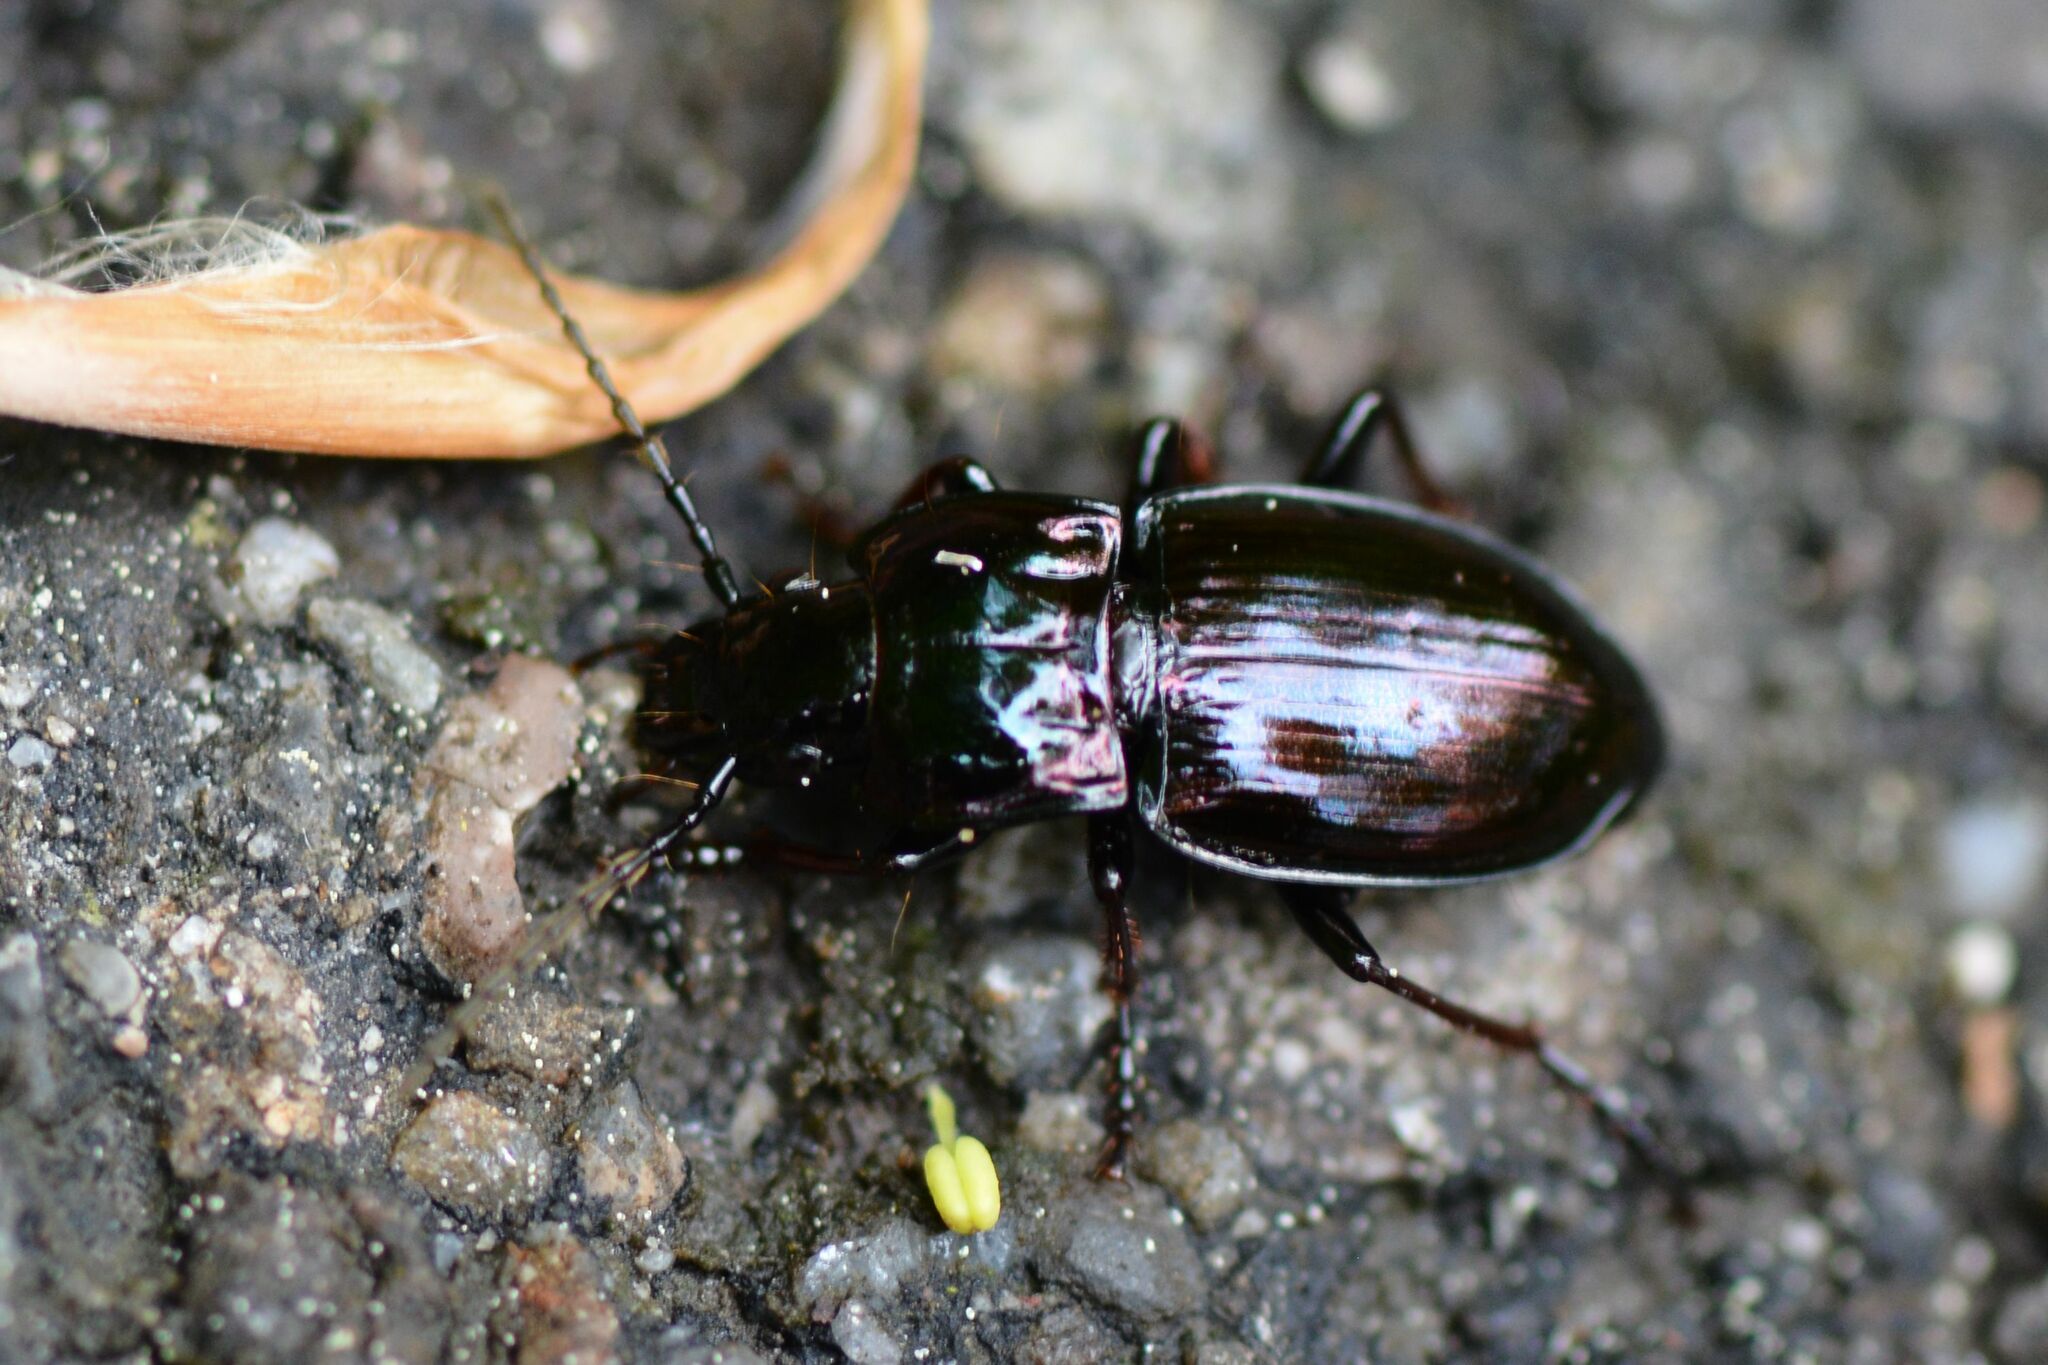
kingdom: Animalia
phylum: Arthropoda
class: Insecta
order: Coleoptera
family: Carabidae
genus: Pterostichus
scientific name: Pterostichus burmeisteri
